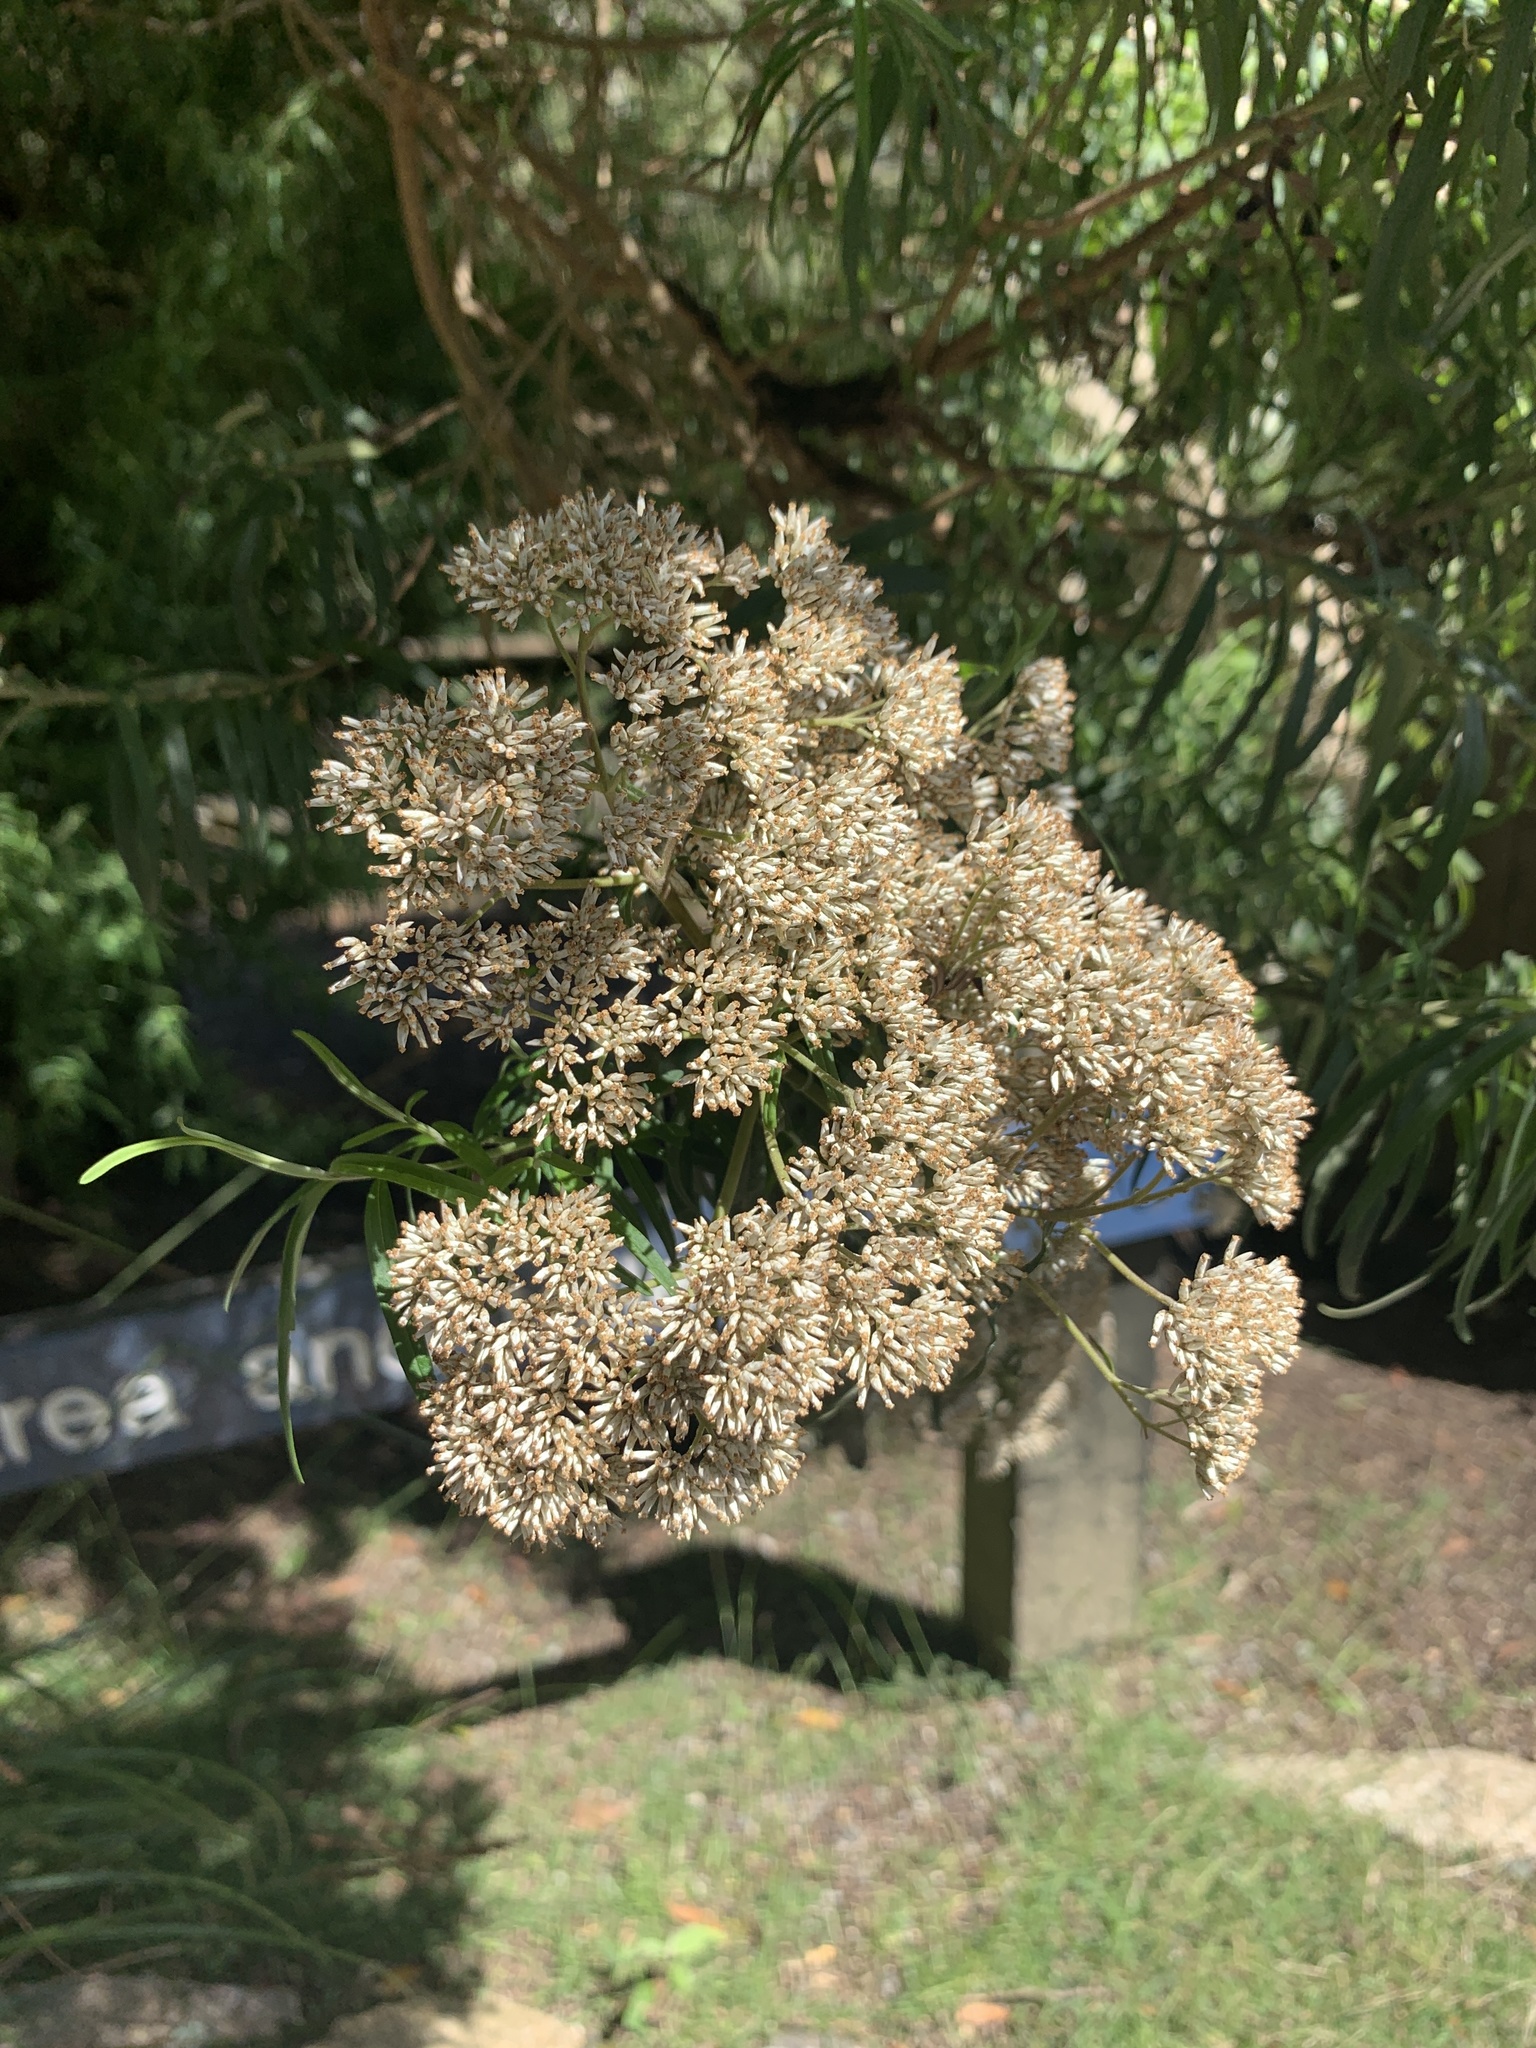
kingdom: Plantae
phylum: Tracheophyta
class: Magnoliopsida
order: Asterales
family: Asteraceae
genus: Cassinia
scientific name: Cassinia trinerva
